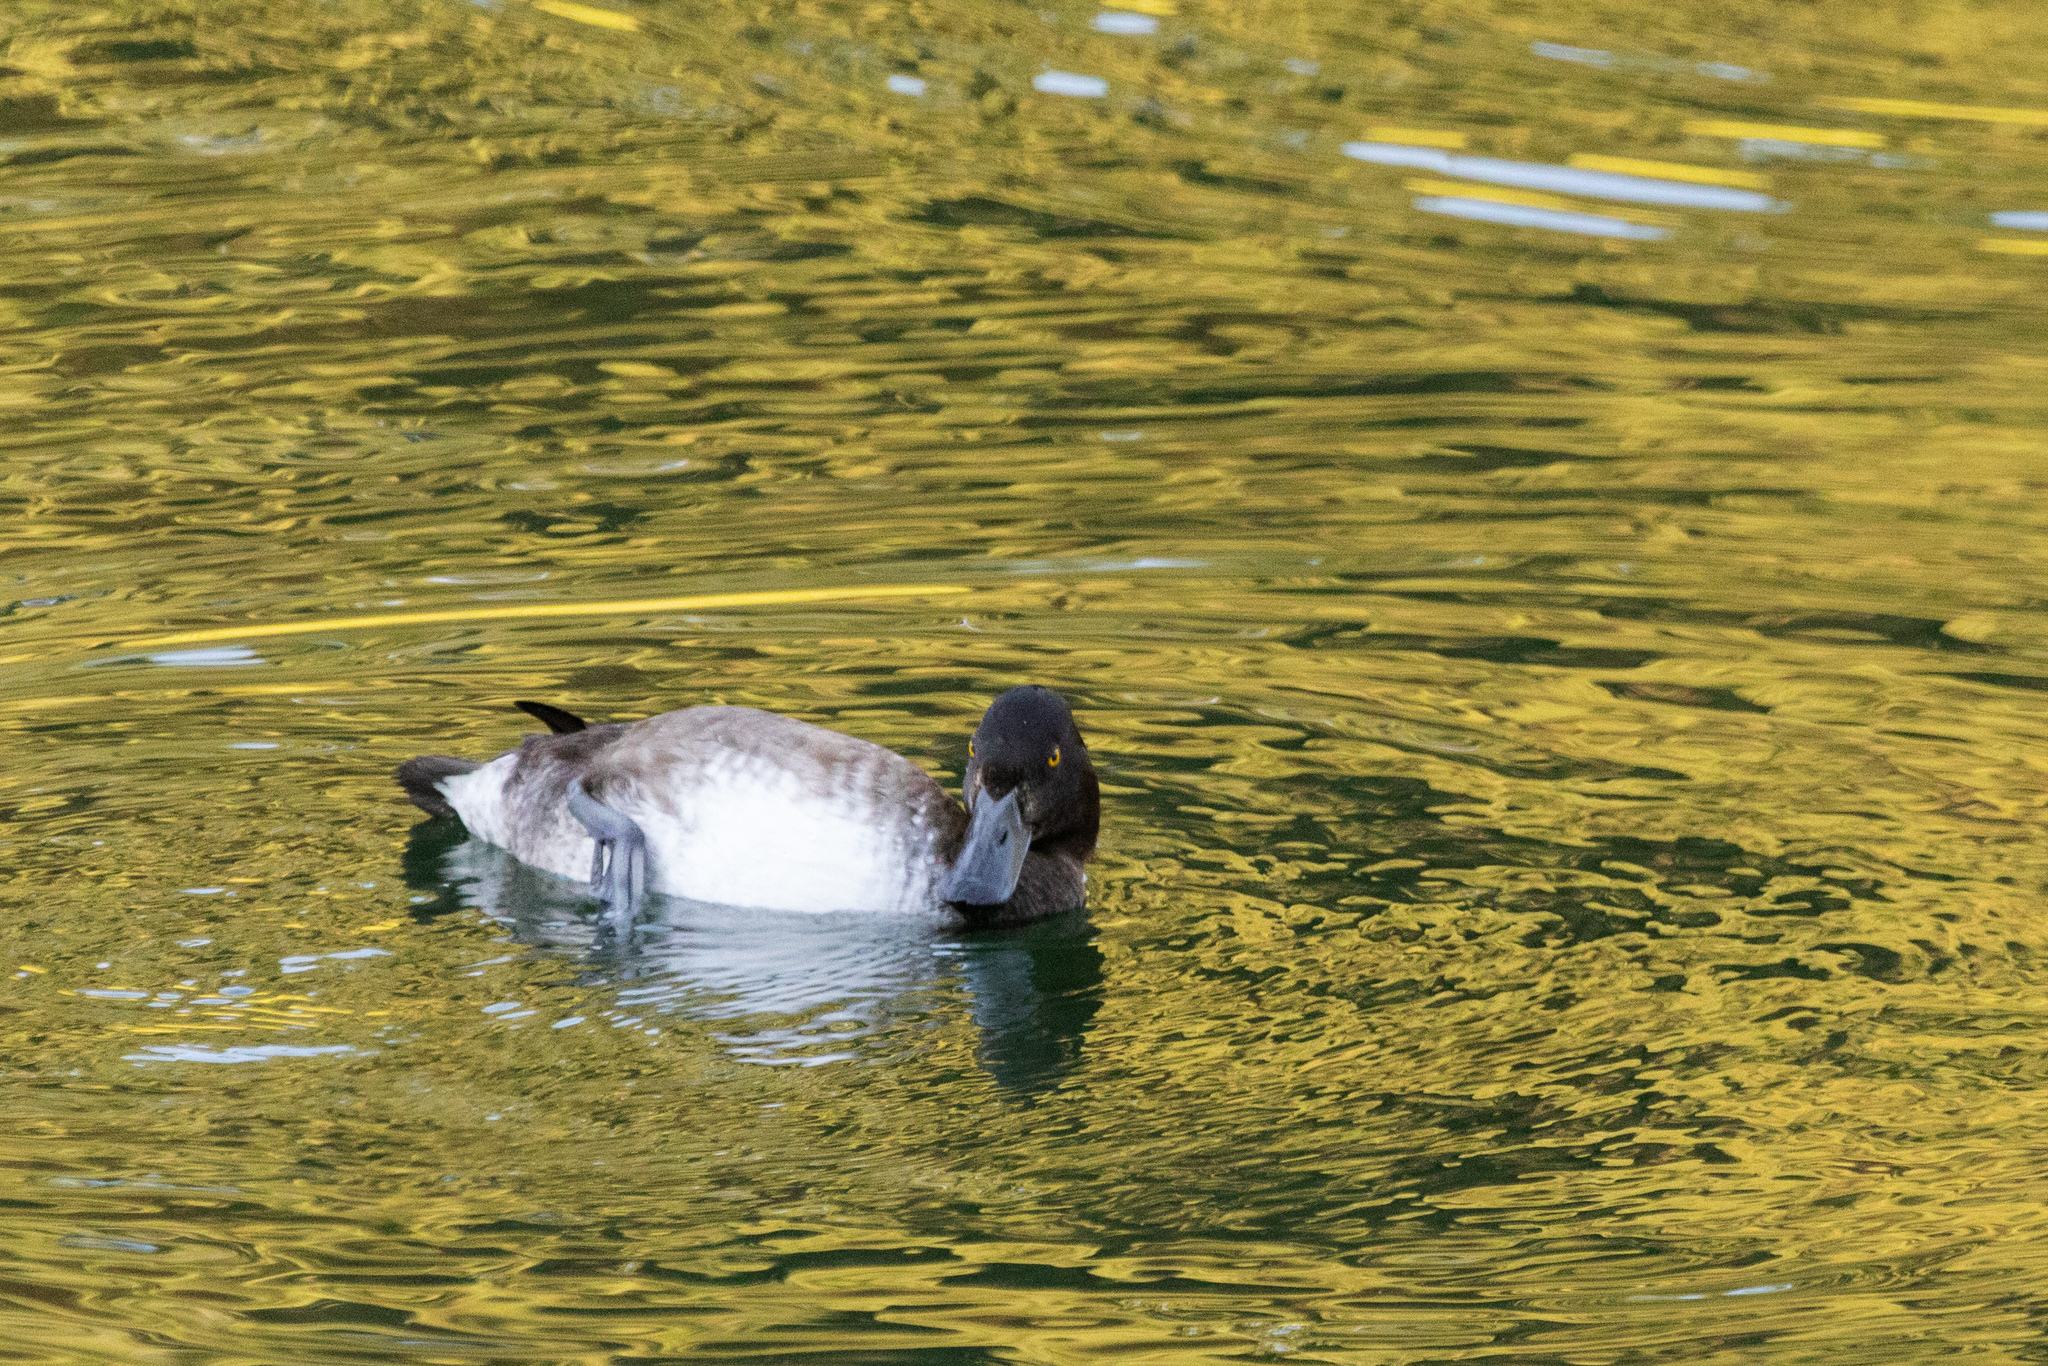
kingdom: Animalia
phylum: Chordata
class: Aves
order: Anseriformes
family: Anatidae
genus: Aythya
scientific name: Aythya fuligula
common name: Tufted duck
